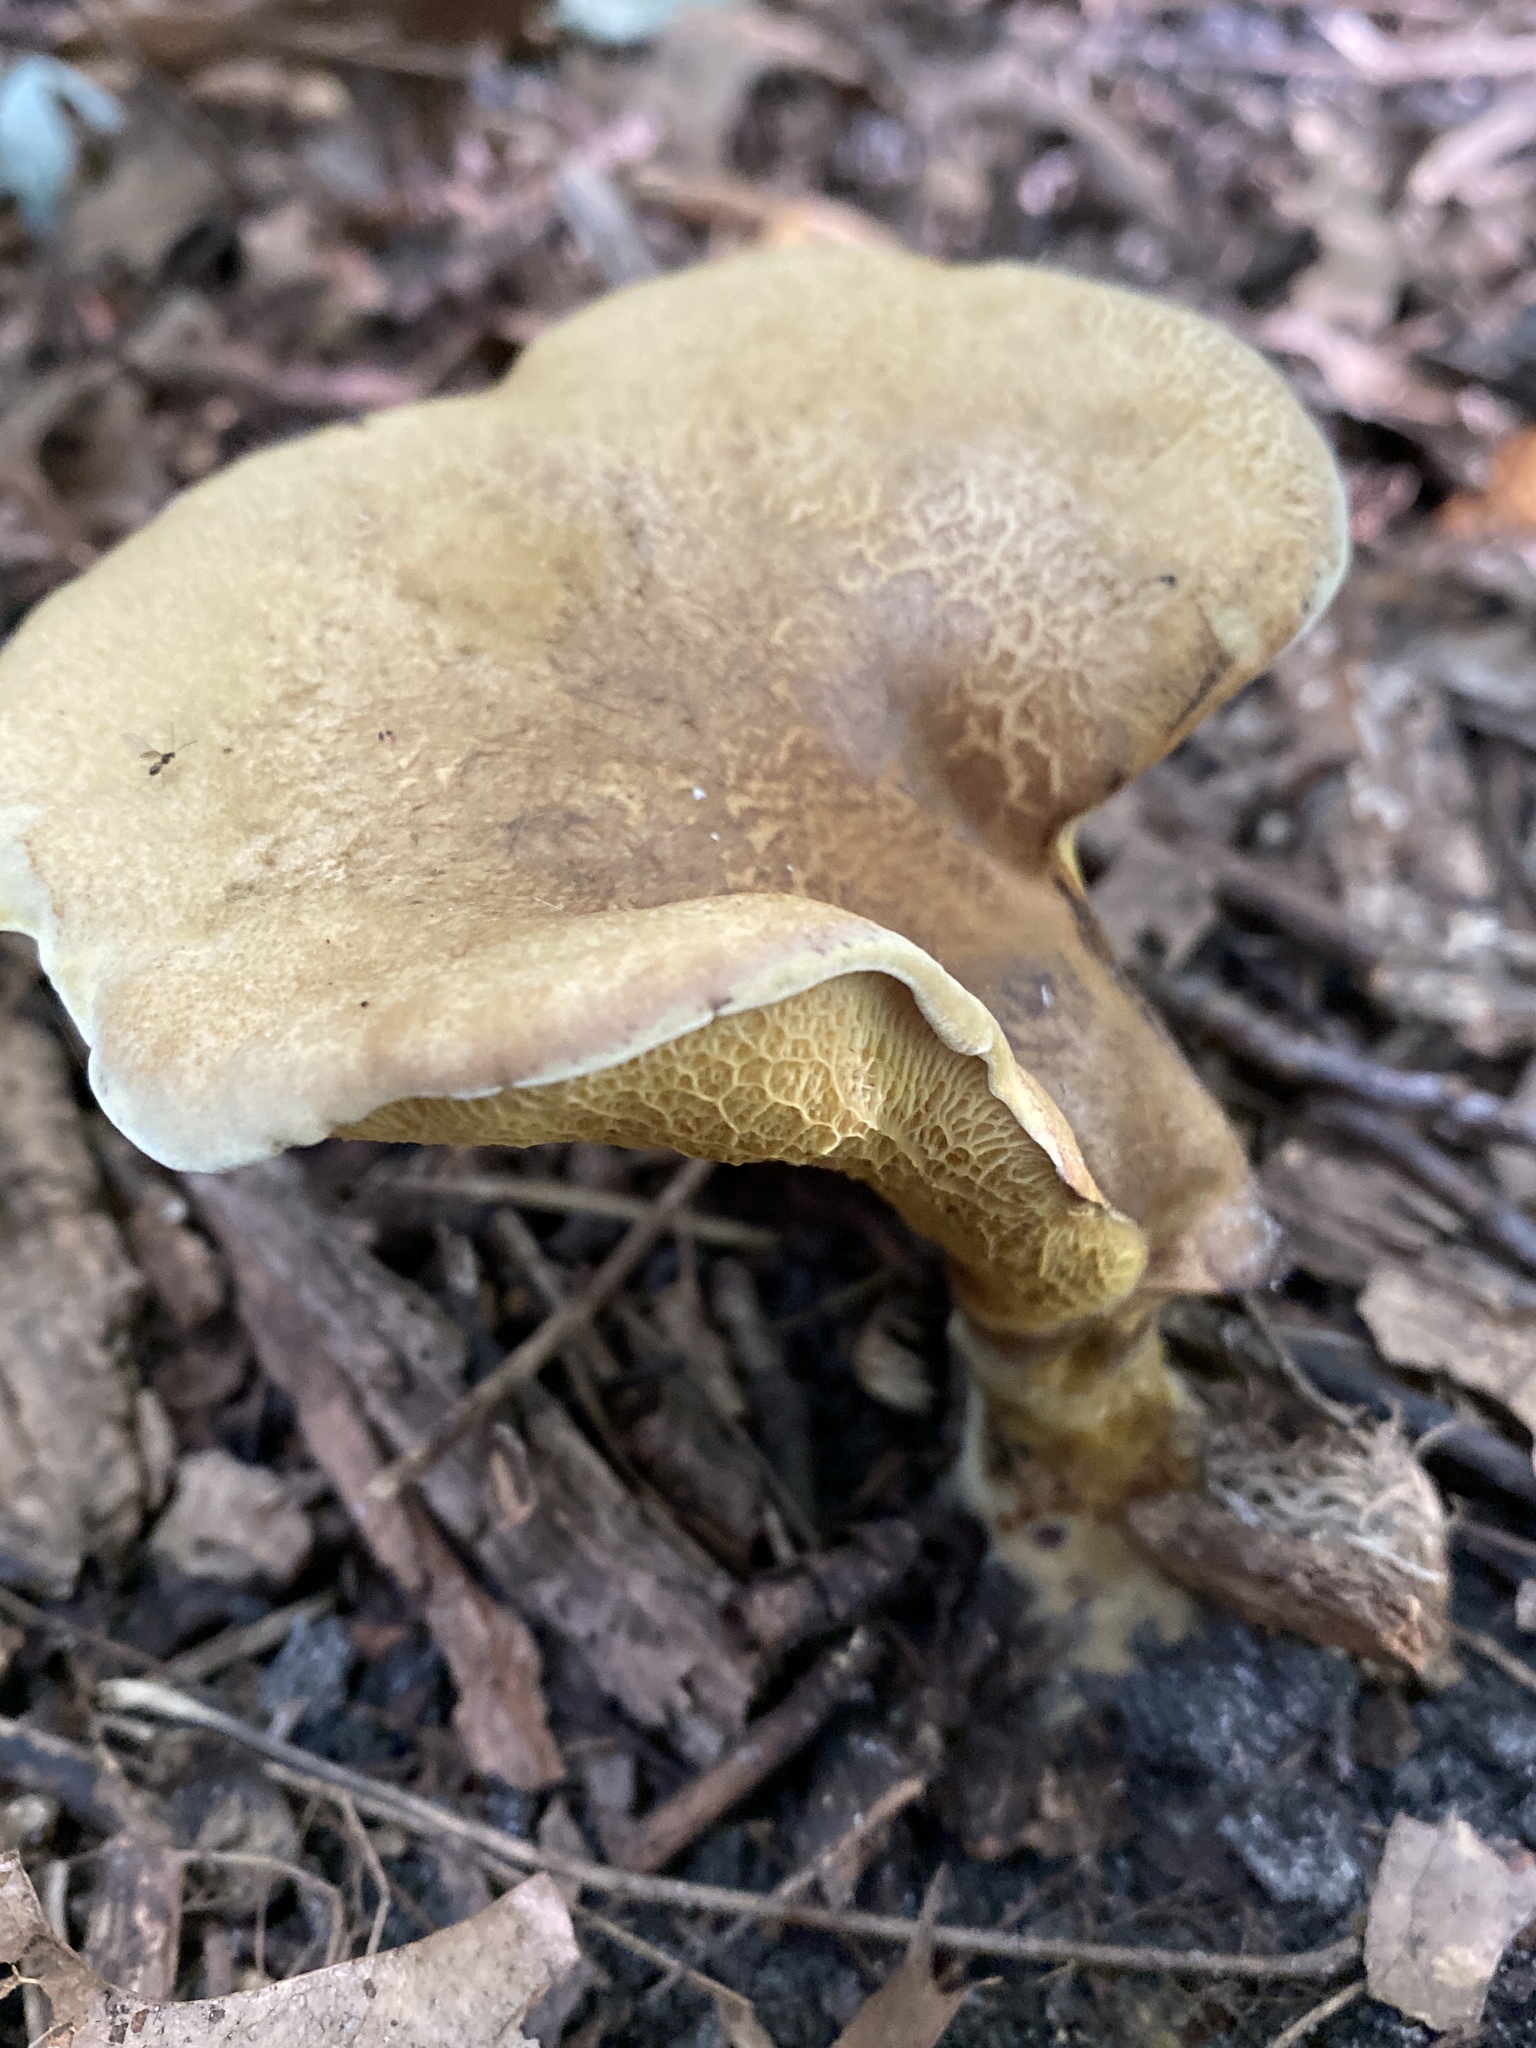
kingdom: Fungi
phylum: Basidiomycota
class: Agaricomycetes
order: Boletales
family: Boletinellaceae
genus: Boletinellus
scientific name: Boletinellus merulioides
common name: Ash tree bolete
